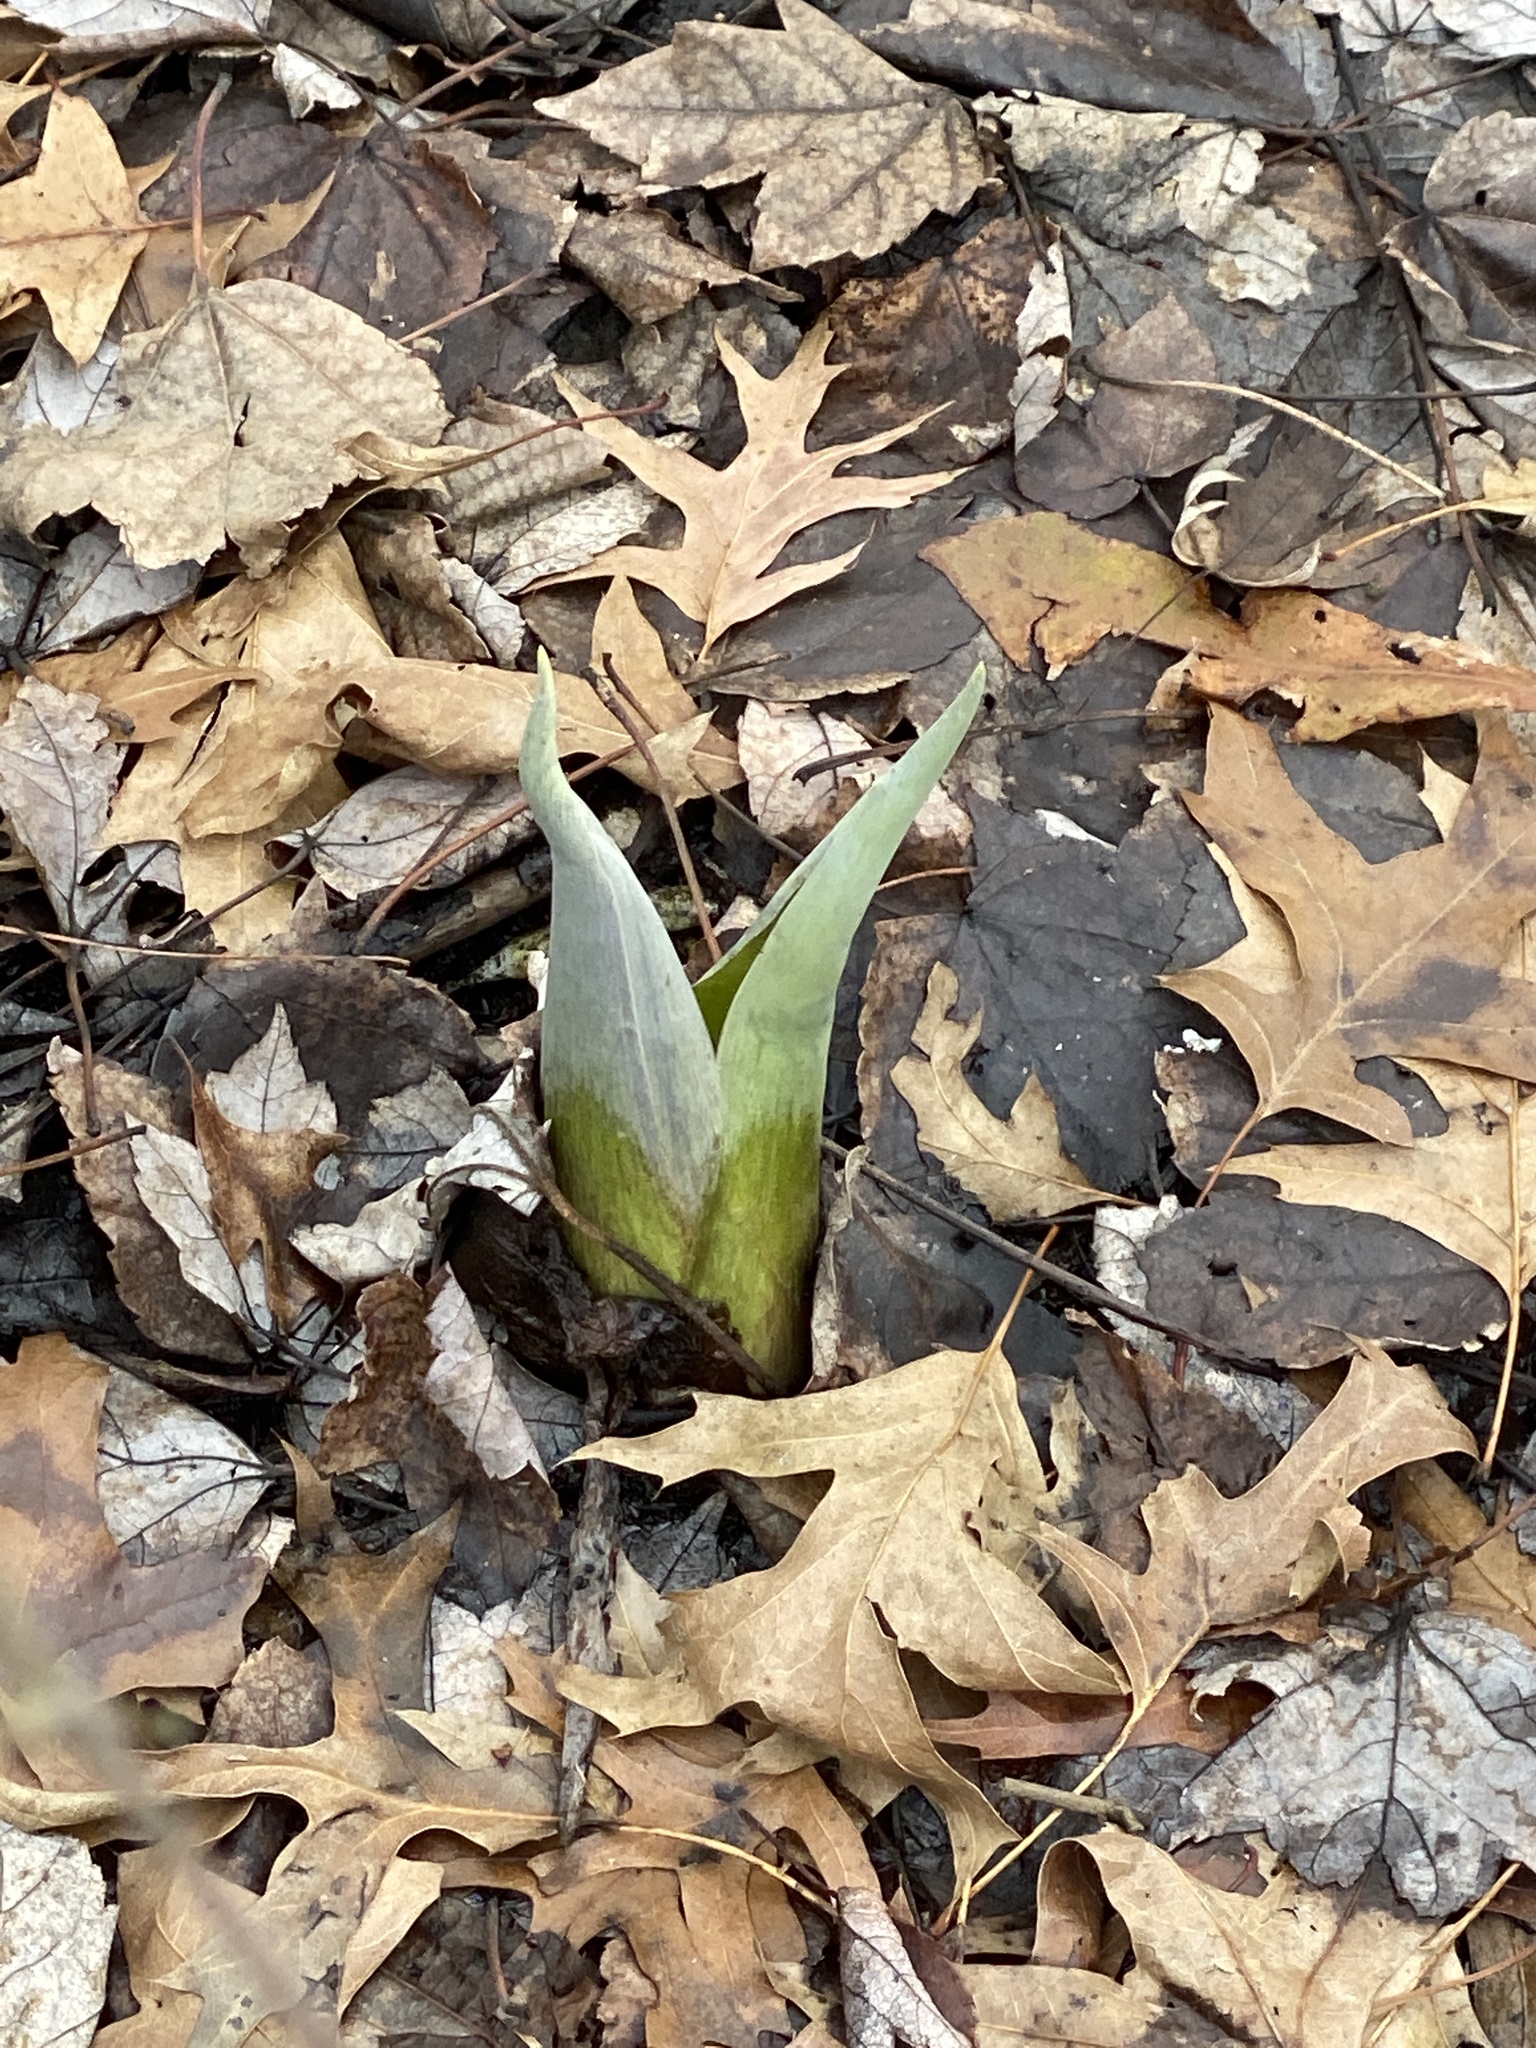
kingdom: Plantae
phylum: Tracheophyta
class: Liliopsida
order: Alismatales
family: Araceae
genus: Symplocarpus
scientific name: Symplocarpus foetidus
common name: Eastern skunk cabbage
